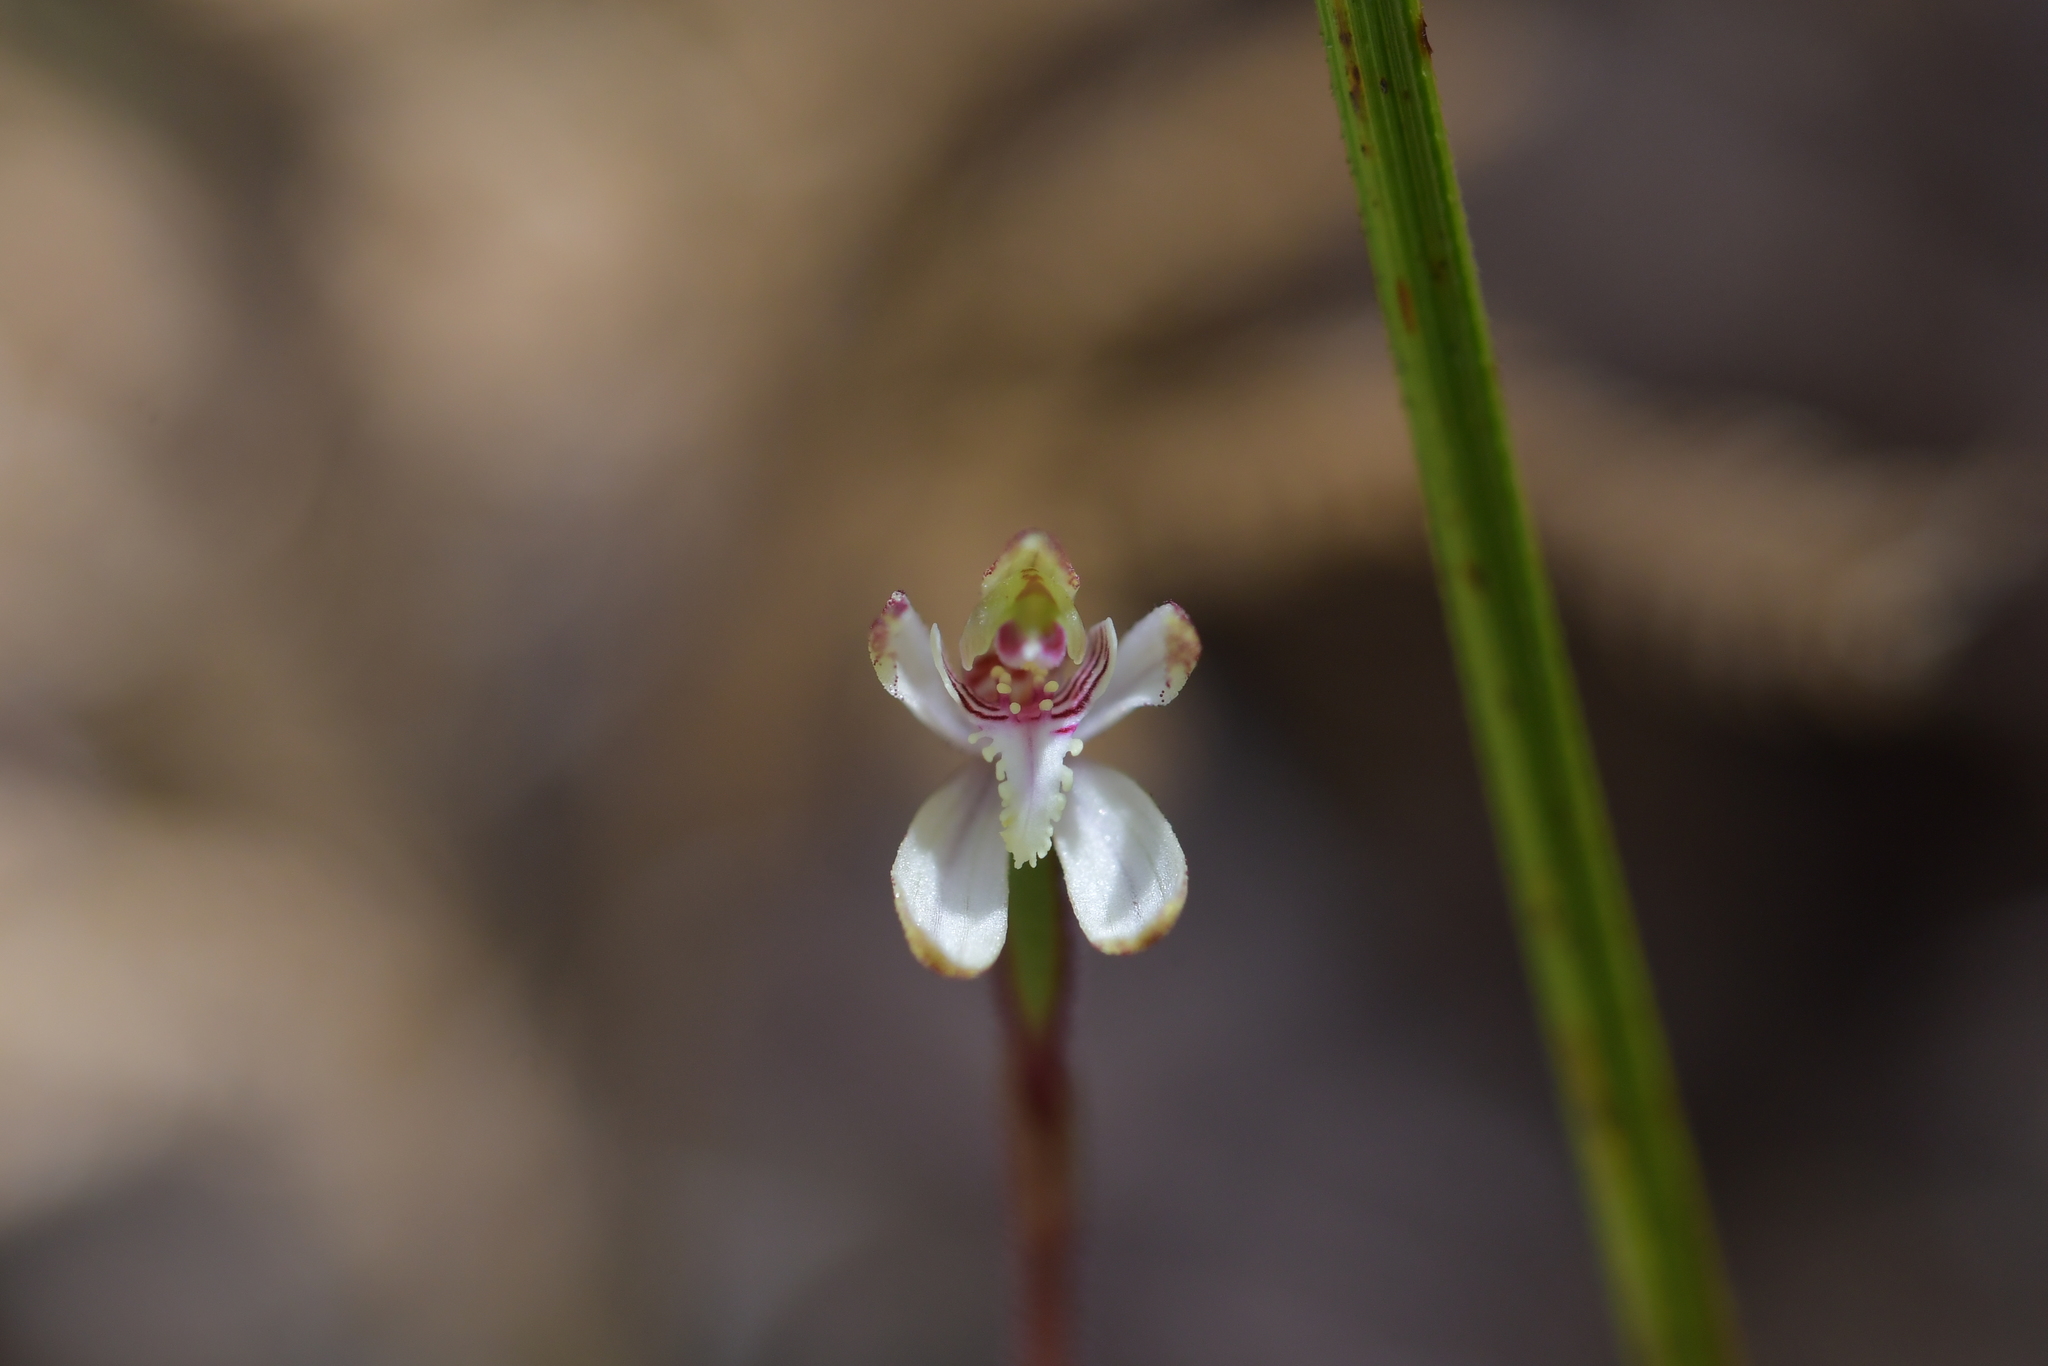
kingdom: Plantae
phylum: Tracheophyta
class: Liliopsida
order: Asparagales
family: Orchidaceae
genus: Caladenia
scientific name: Caladenia chlorostyla
